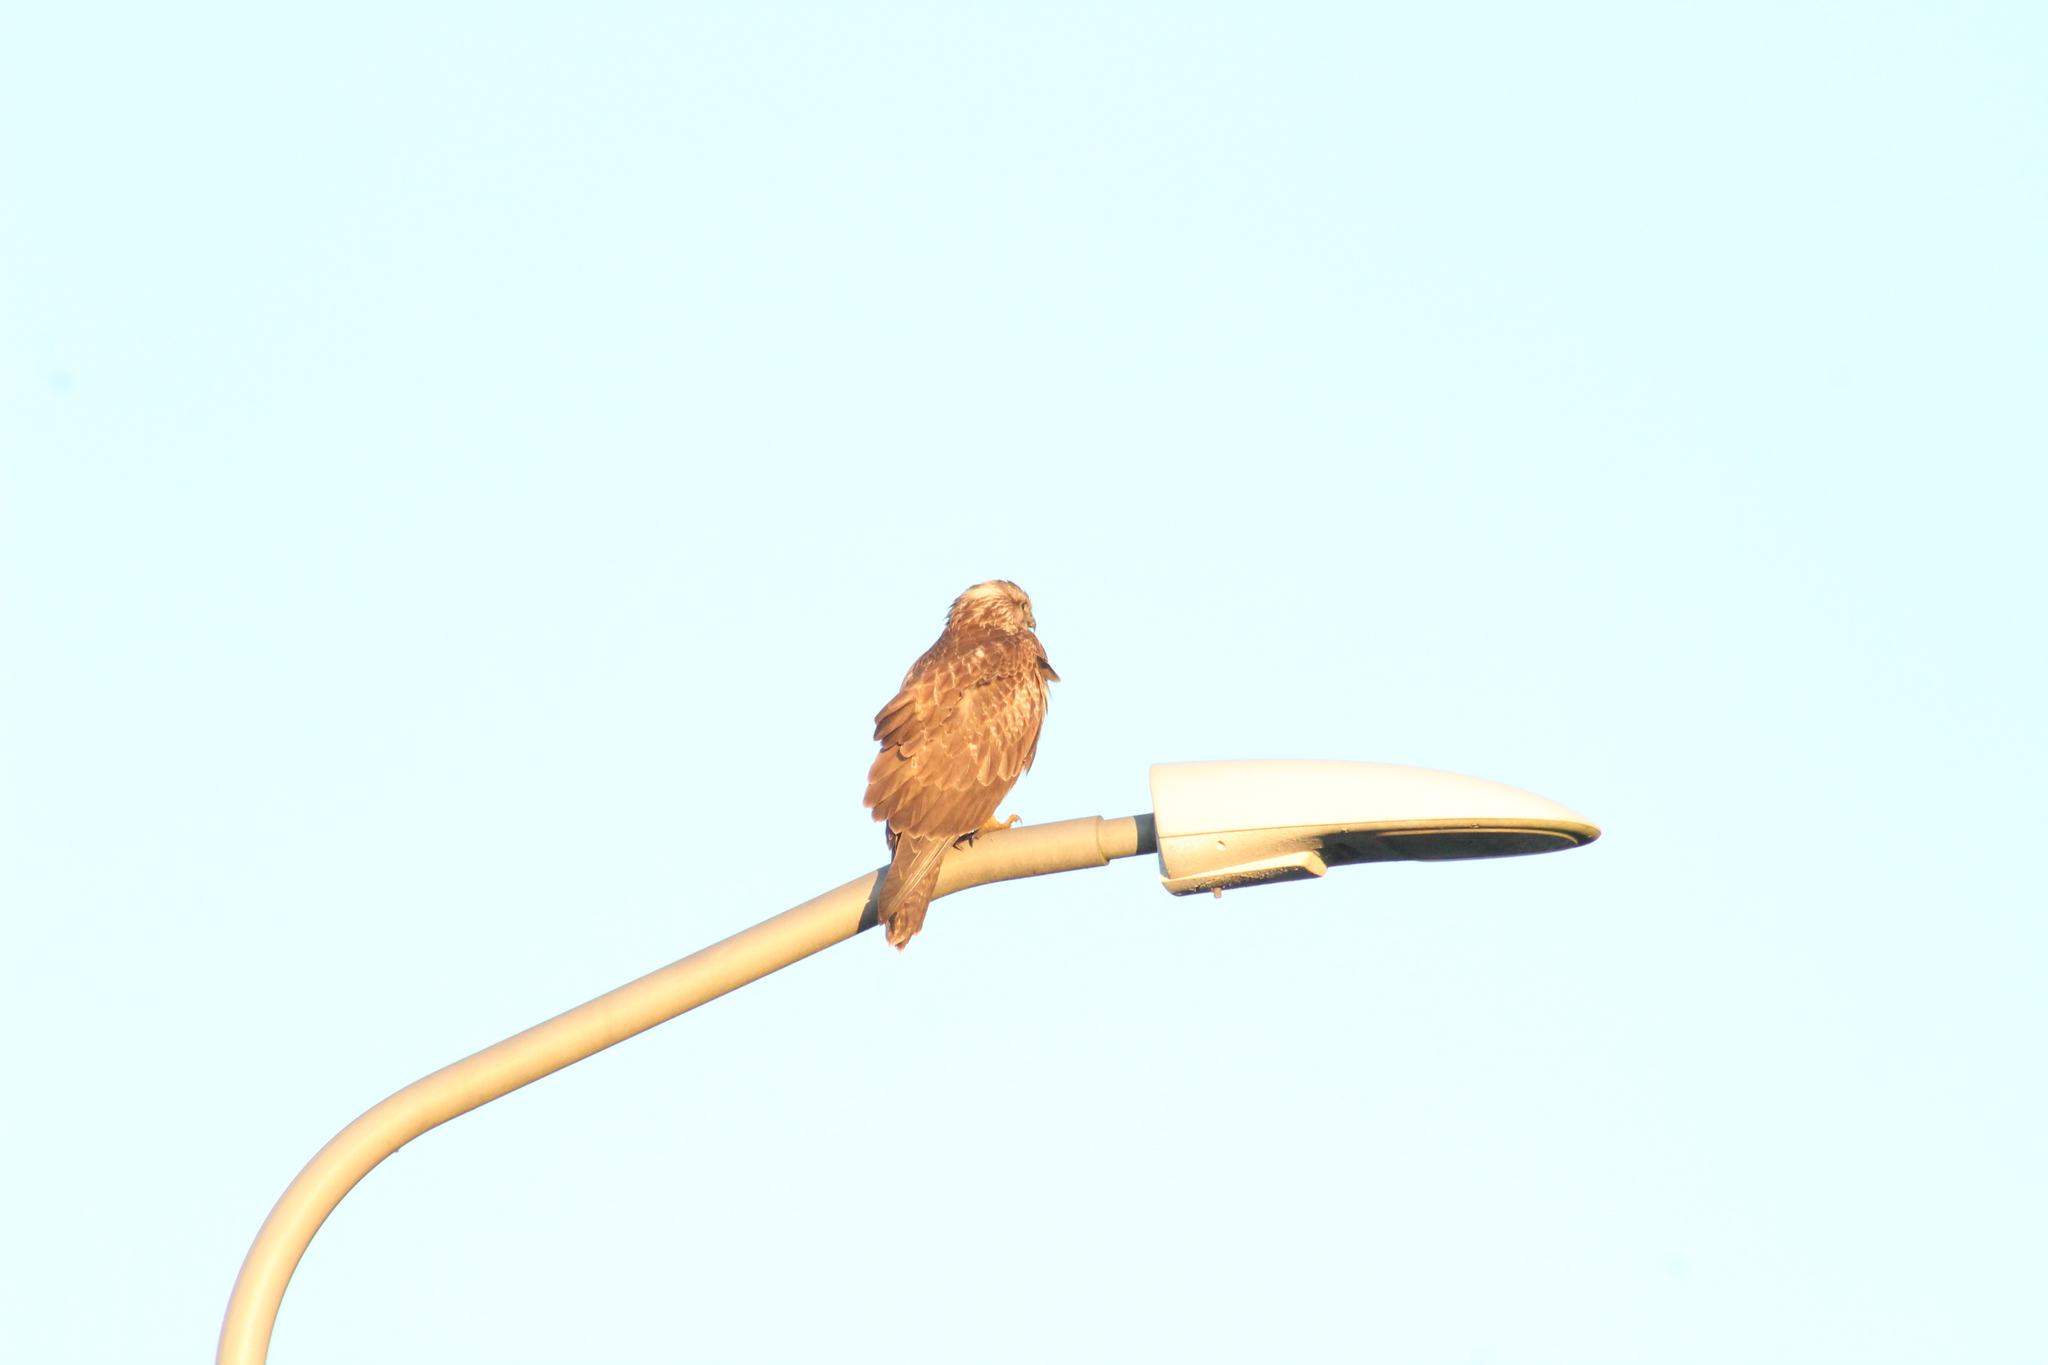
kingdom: Animalia
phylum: Chordata
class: Aves
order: Accipitriformes
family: Accipitridae
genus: Buteo
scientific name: Buteo buteo
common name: Common buzzard
